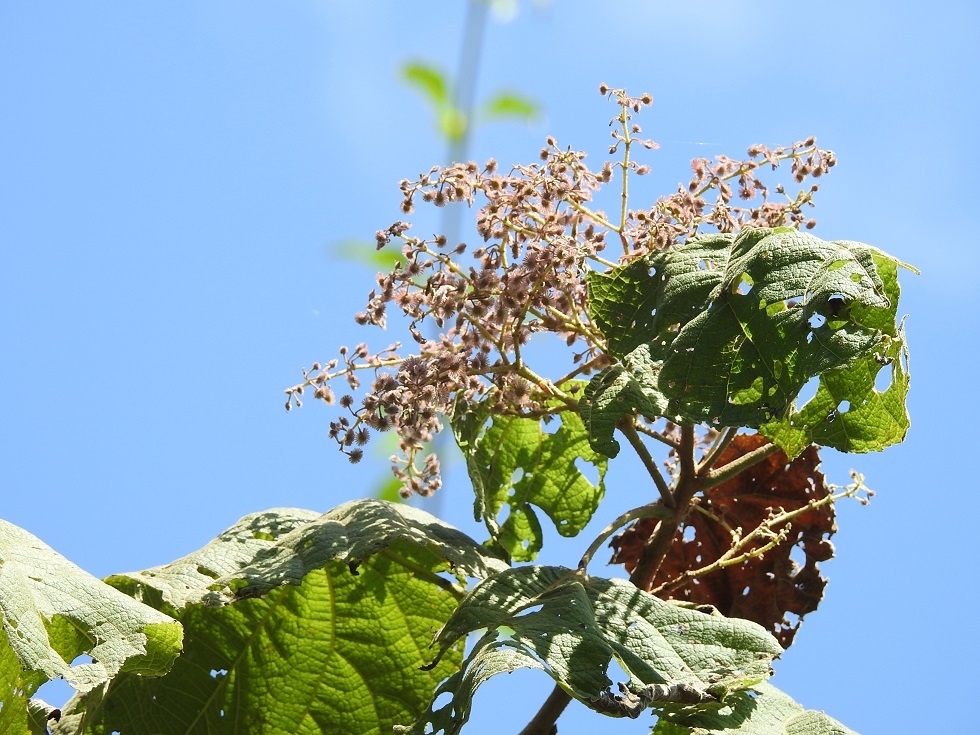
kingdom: Plantae
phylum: Tracheophyta
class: Magnoliopsida
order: Malvales
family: Malvaceae
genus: Heliocarpus
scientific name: Heliocarpus americanus
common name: White moho
